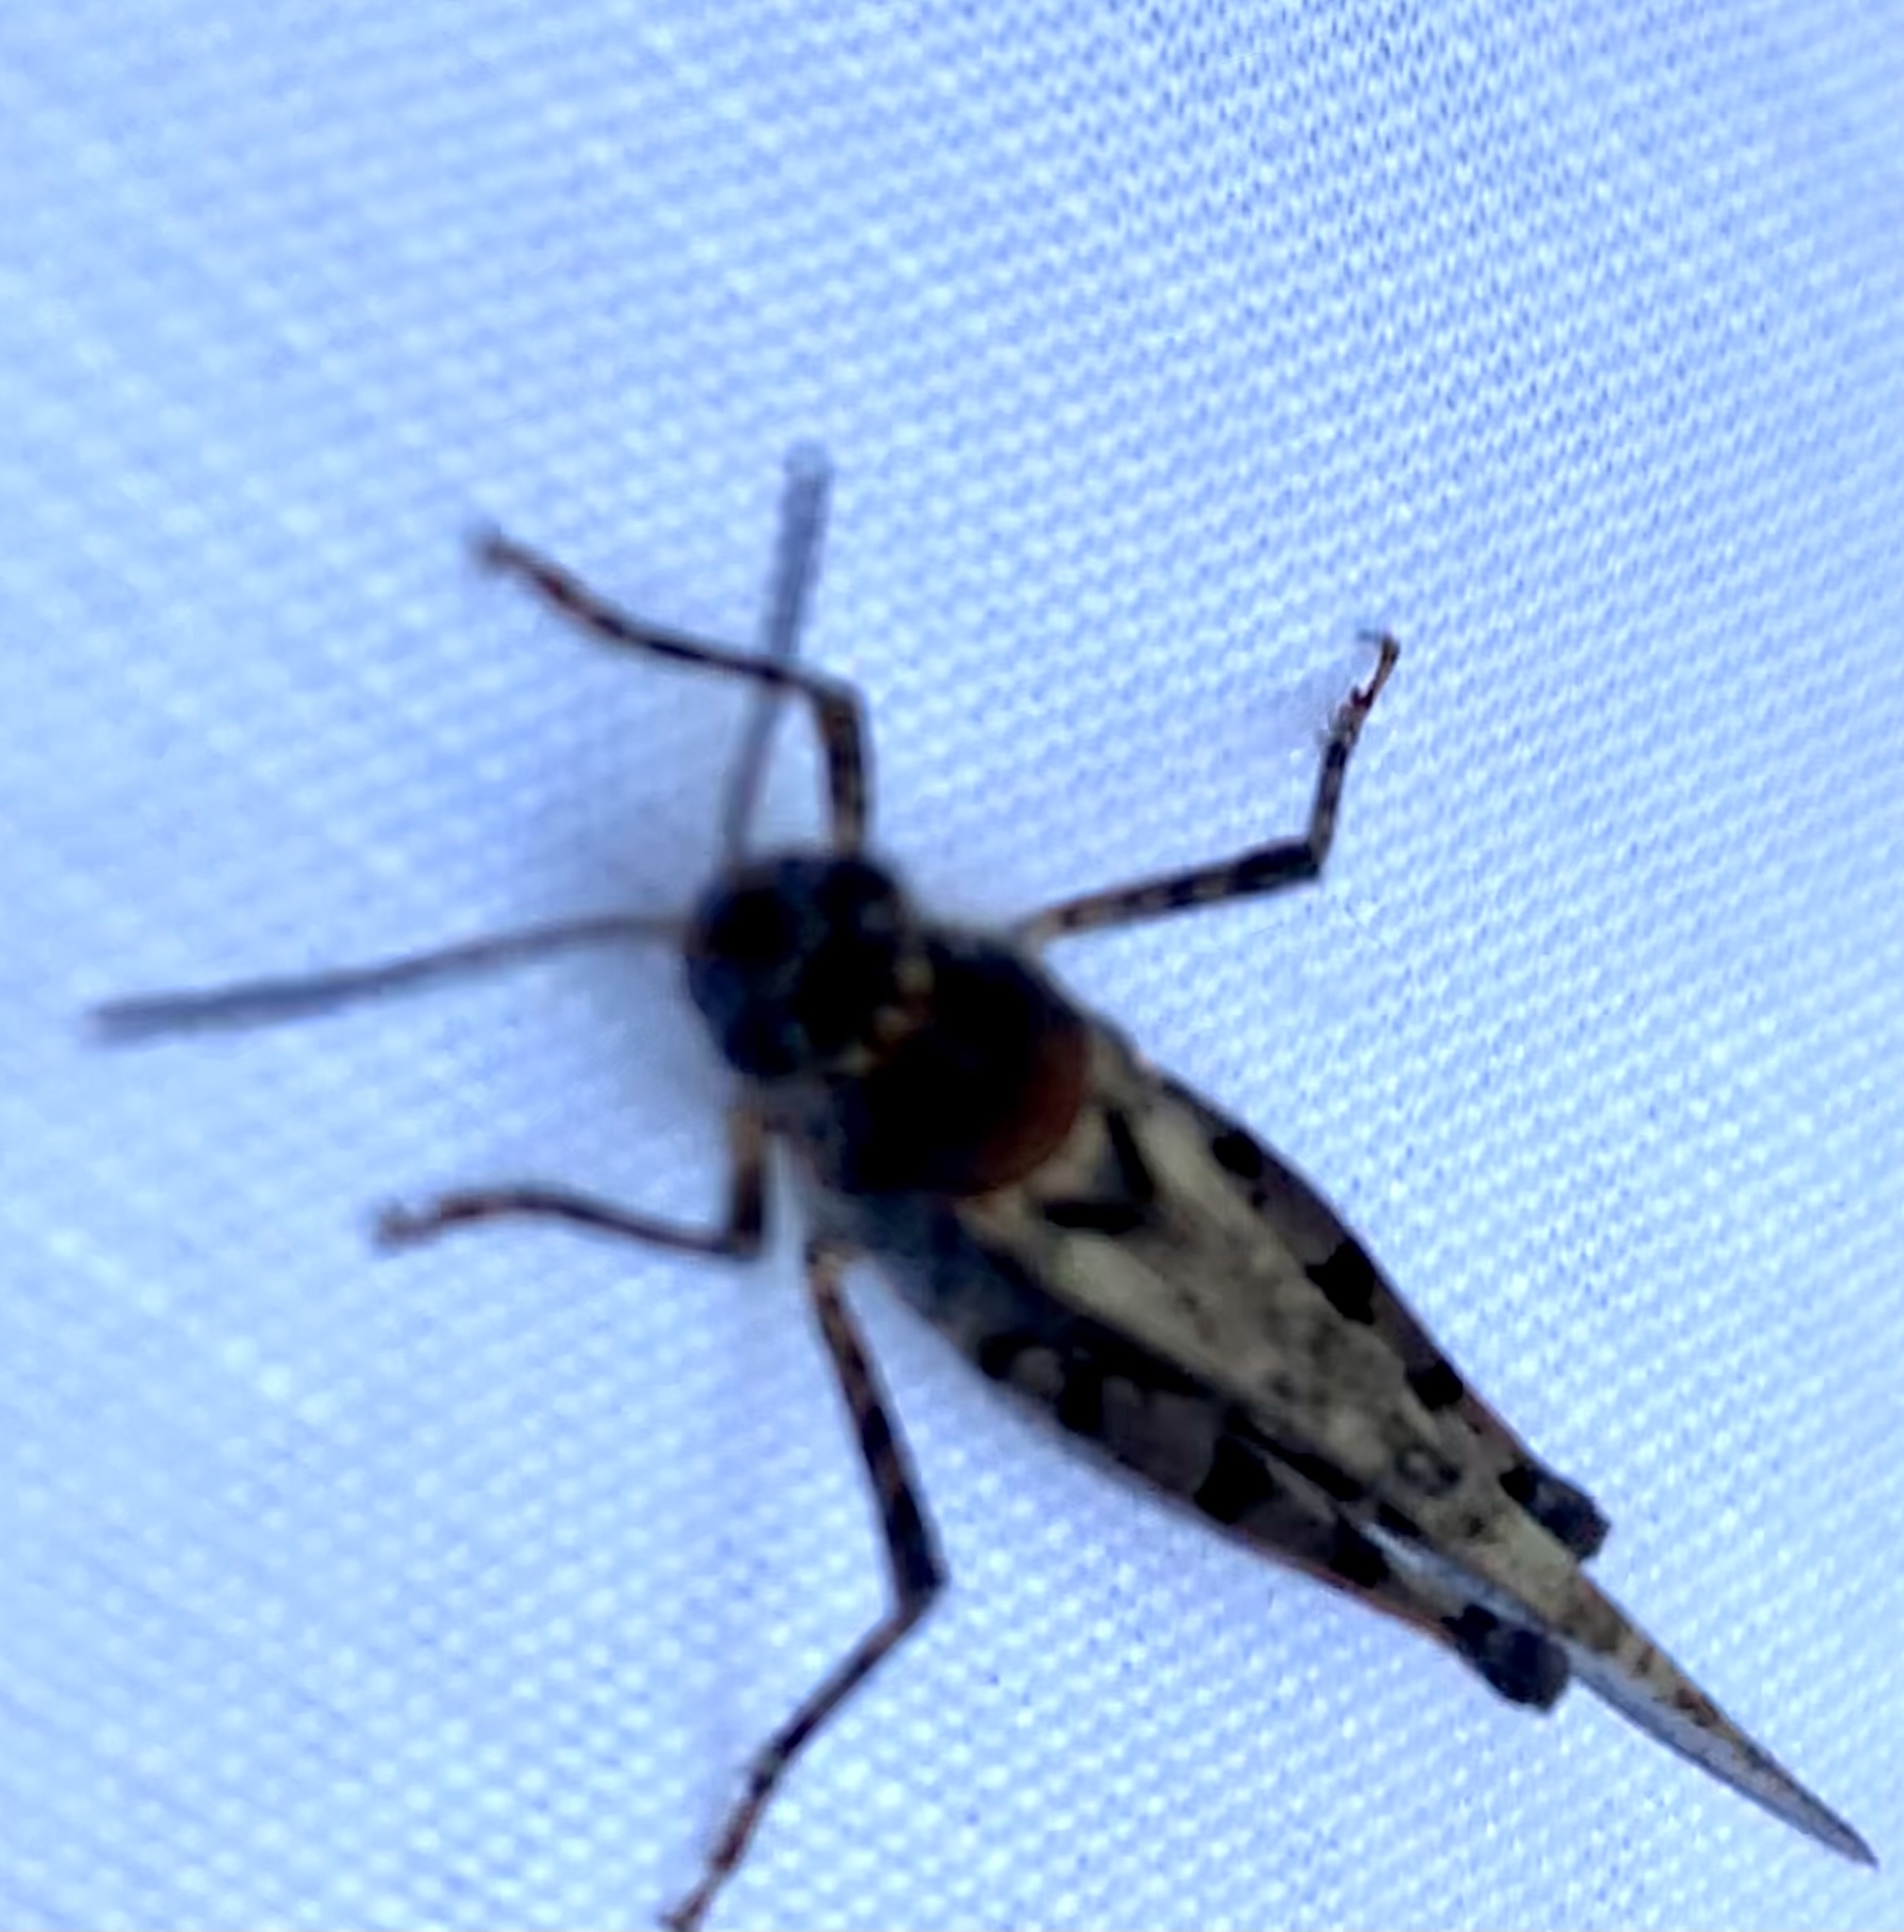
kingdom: Animalia
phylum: Arthropoda
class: Insecta
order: Orthoptera
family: Acrididae
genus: Acrotylus
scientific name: Acrotylus patruelis
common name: Slender burrowing grasshopper
